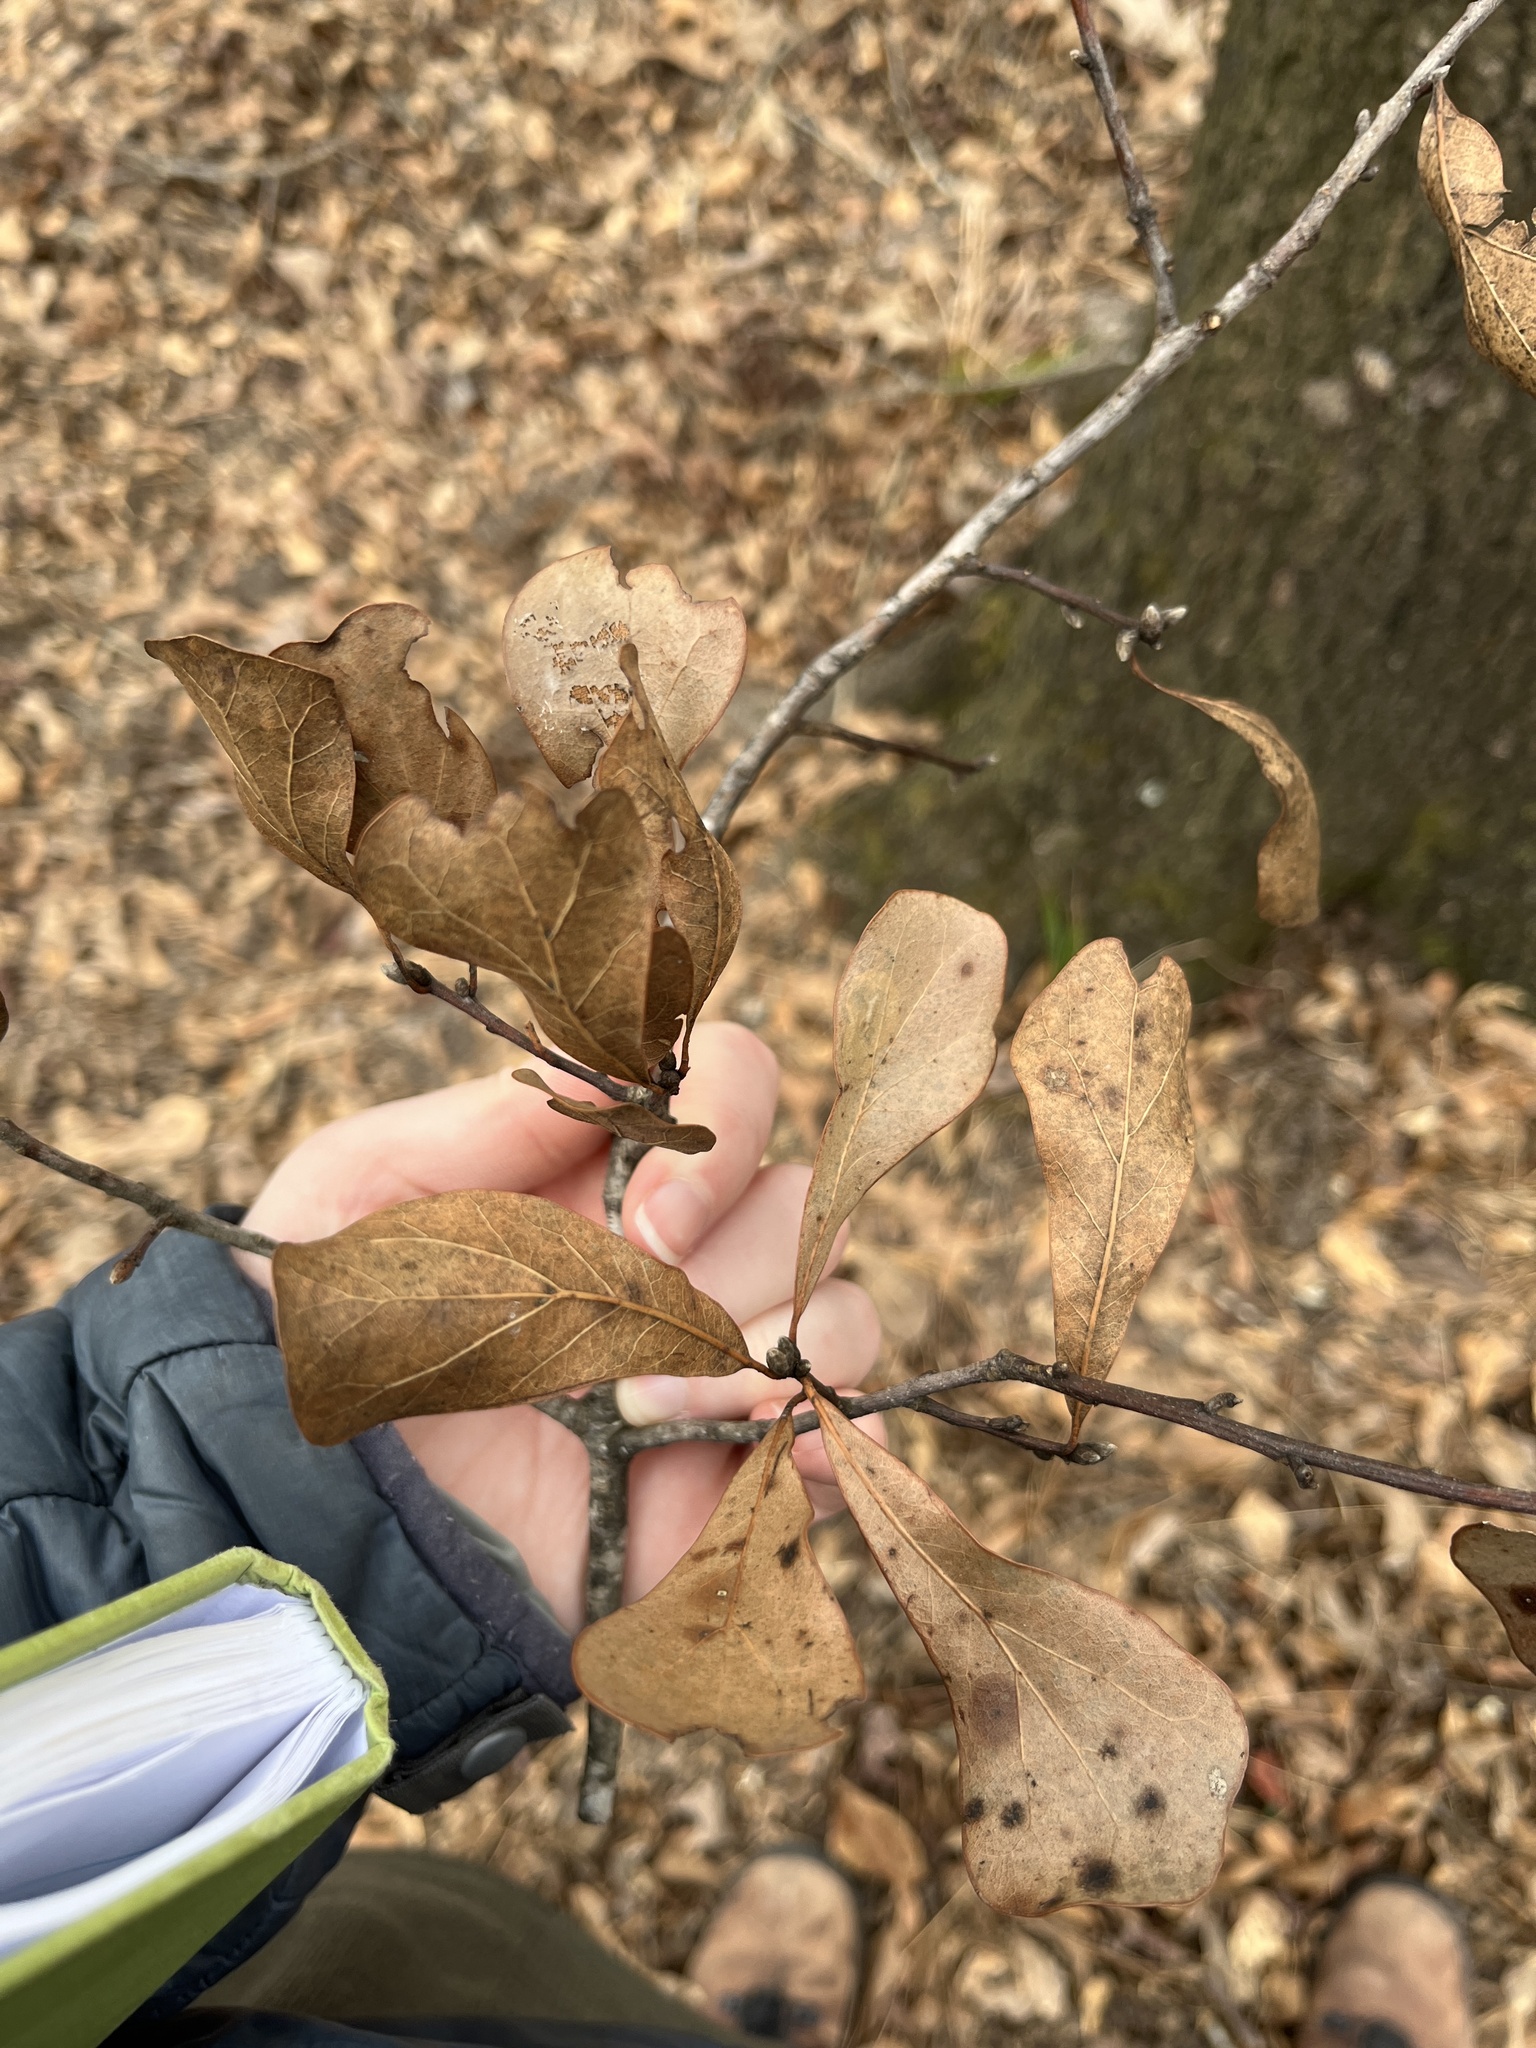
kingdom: Plantae
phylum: Tracheophyta
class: Magnoliopsida
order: Fagales
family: Fagaceae
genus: Quercus
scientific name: Quercus nigra
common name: Water oak
